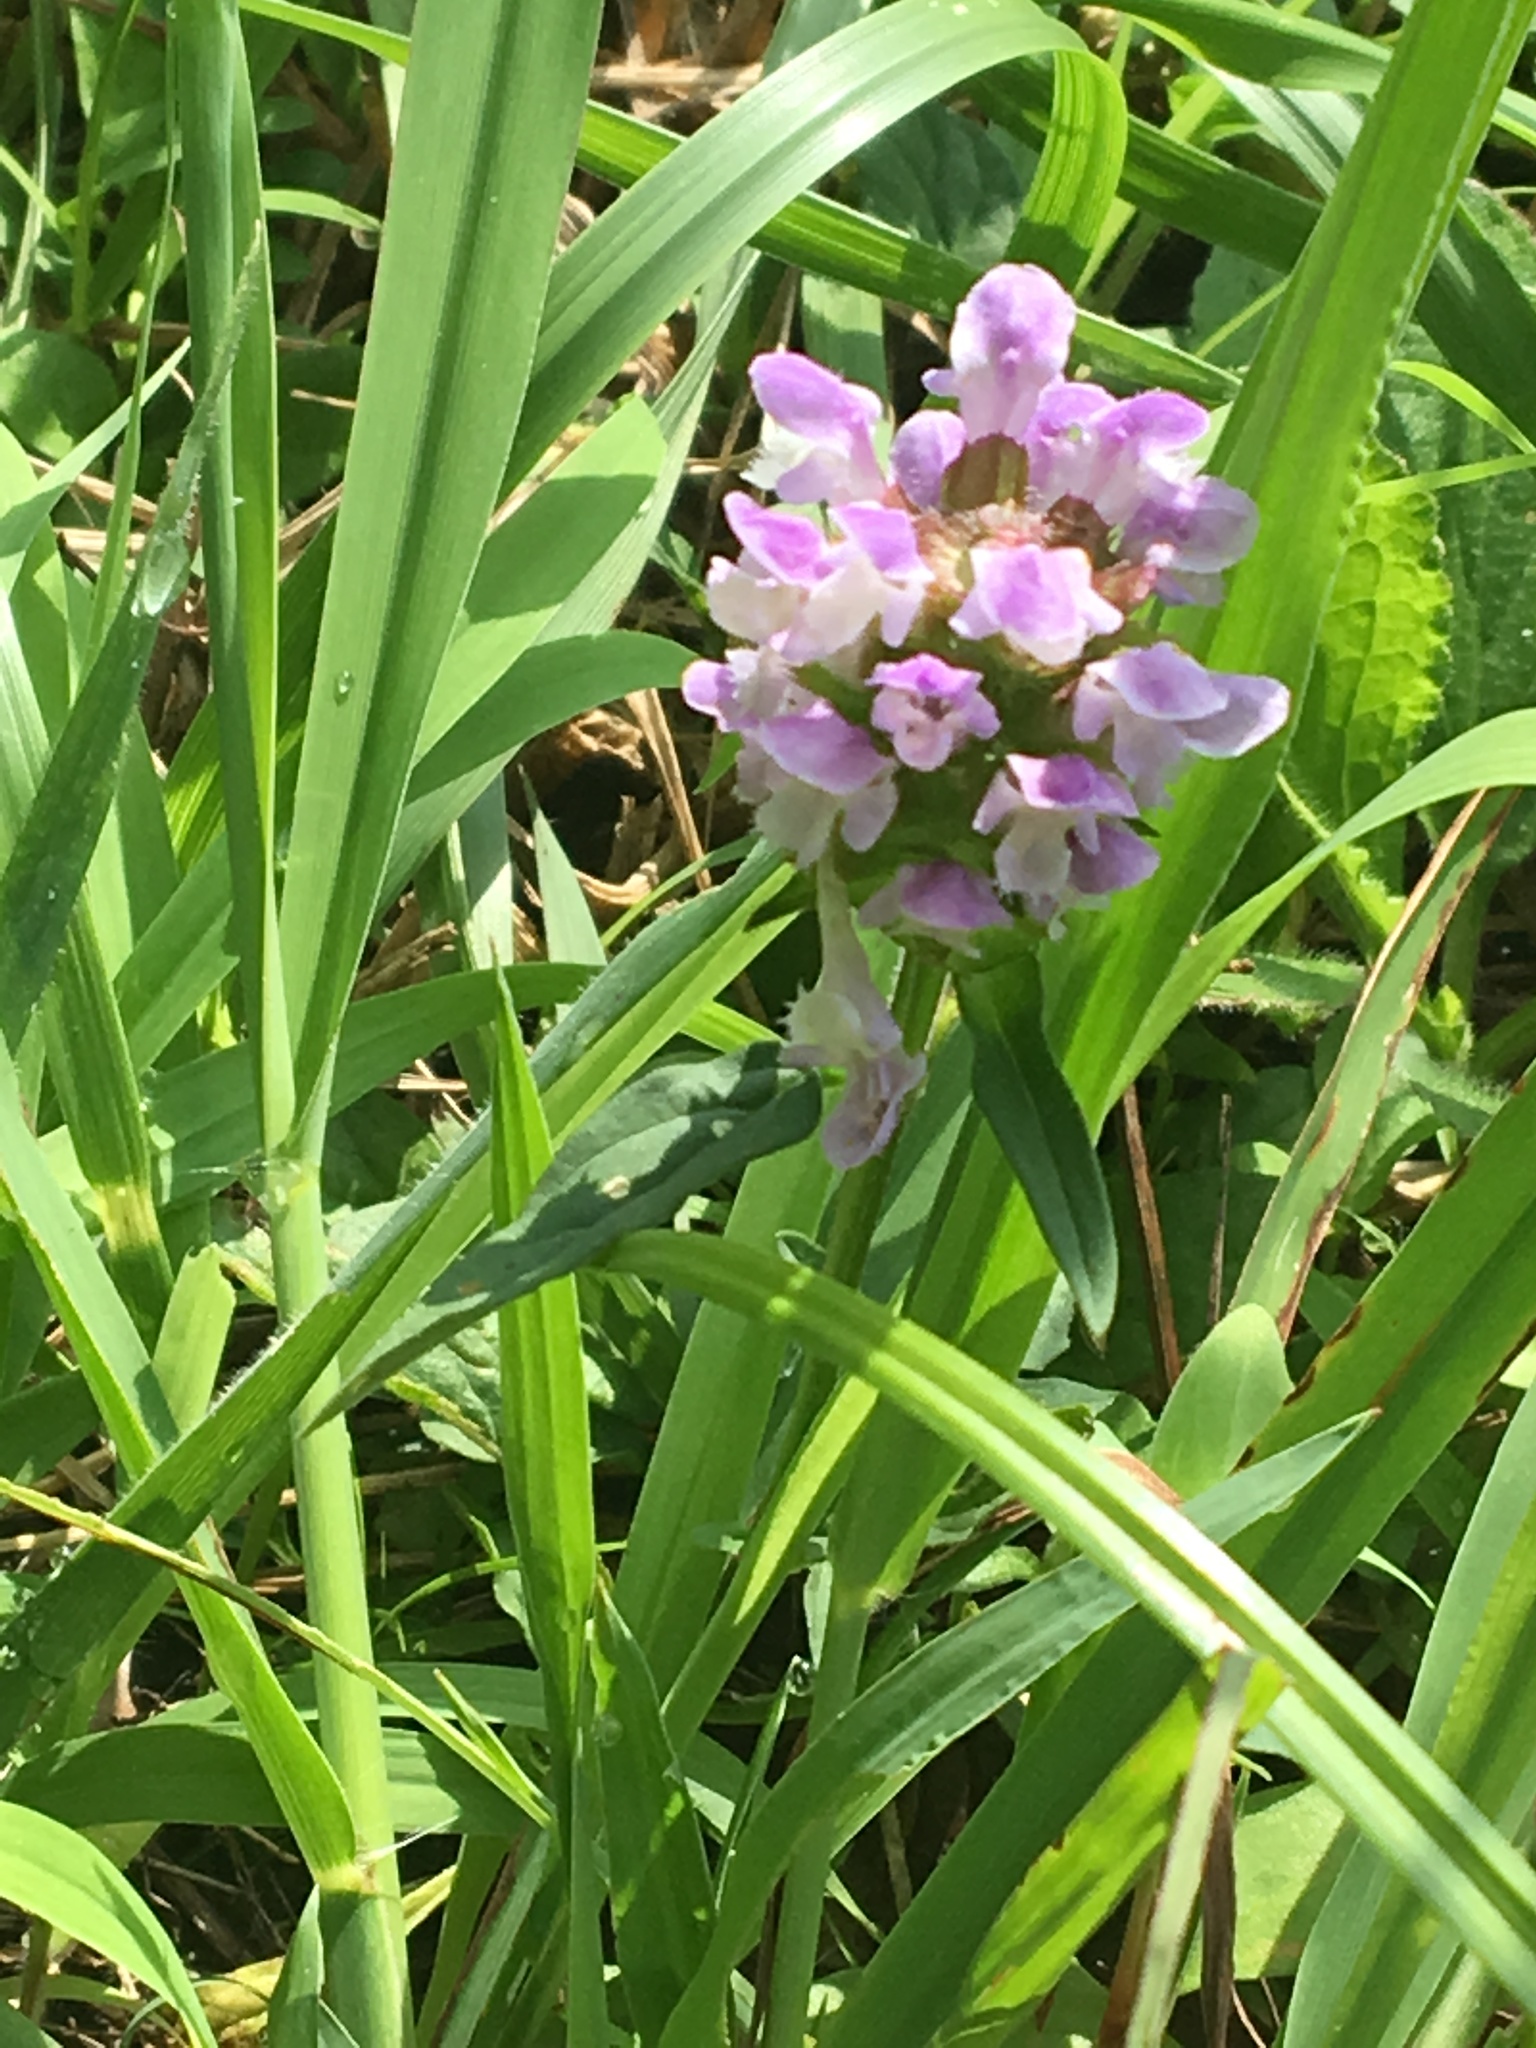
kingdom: Plantae
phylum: Tracheophyta
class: Magnoliopsida
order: Lamiales
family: Lamiaceae
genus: Prunella
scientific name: Prunella vulgaris
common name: Heal-all
